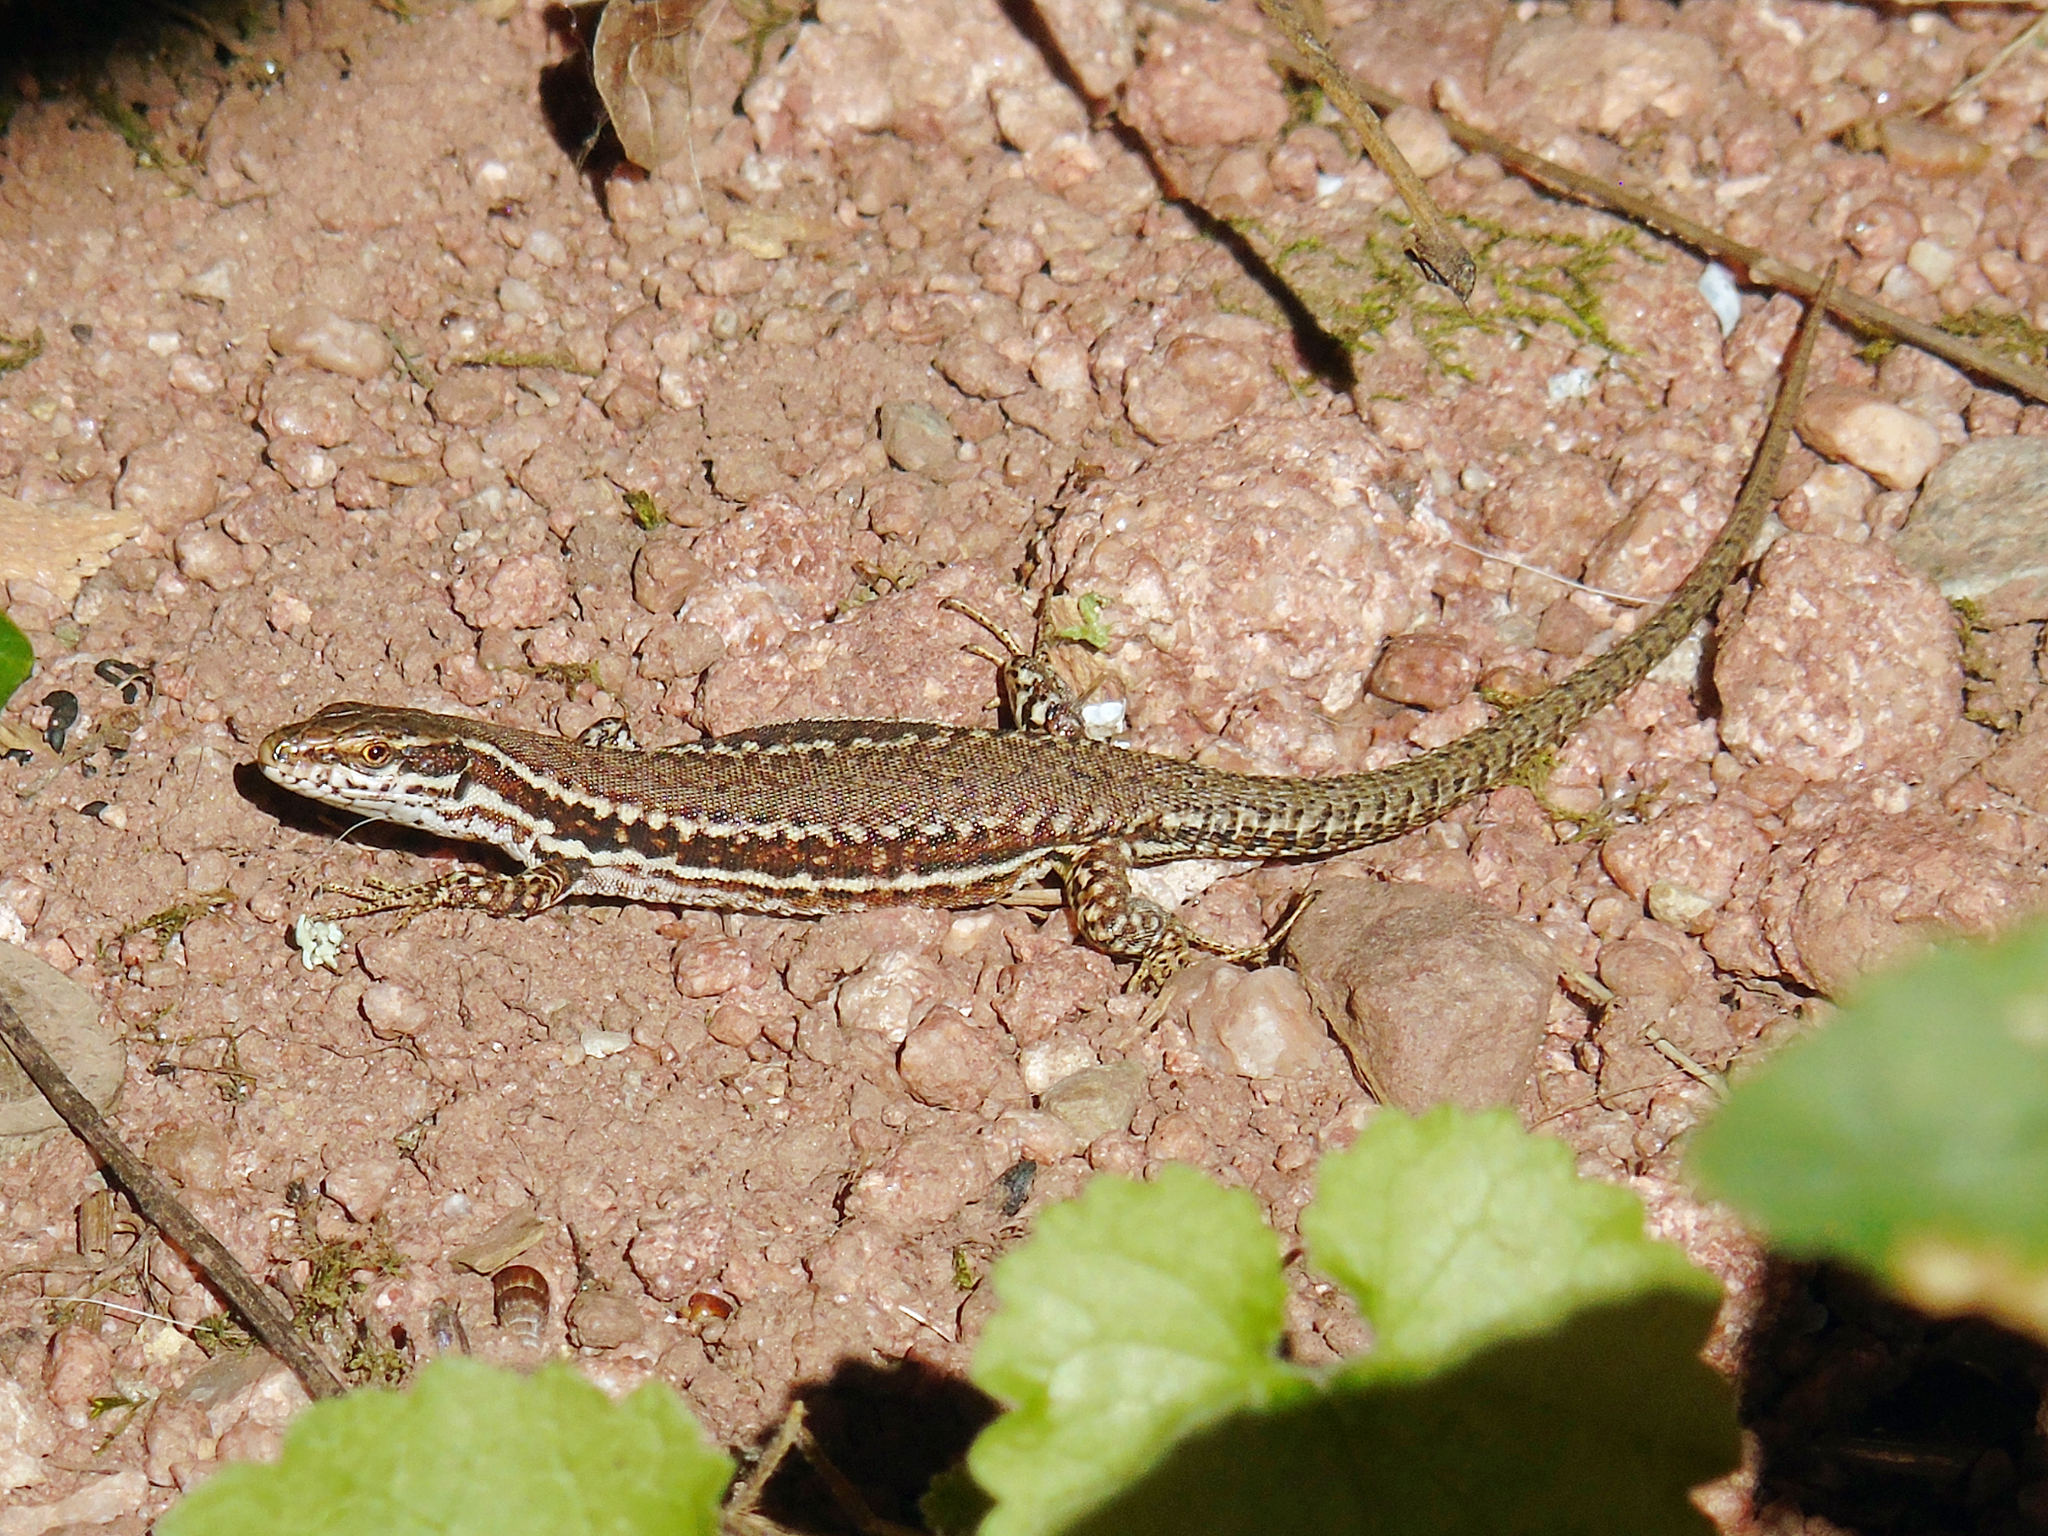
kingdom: Animalia
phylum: Chordata
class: Squamata
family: Lacertidae
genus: Podarcis
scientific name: Podarcis muralis
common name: Common wall lizard
